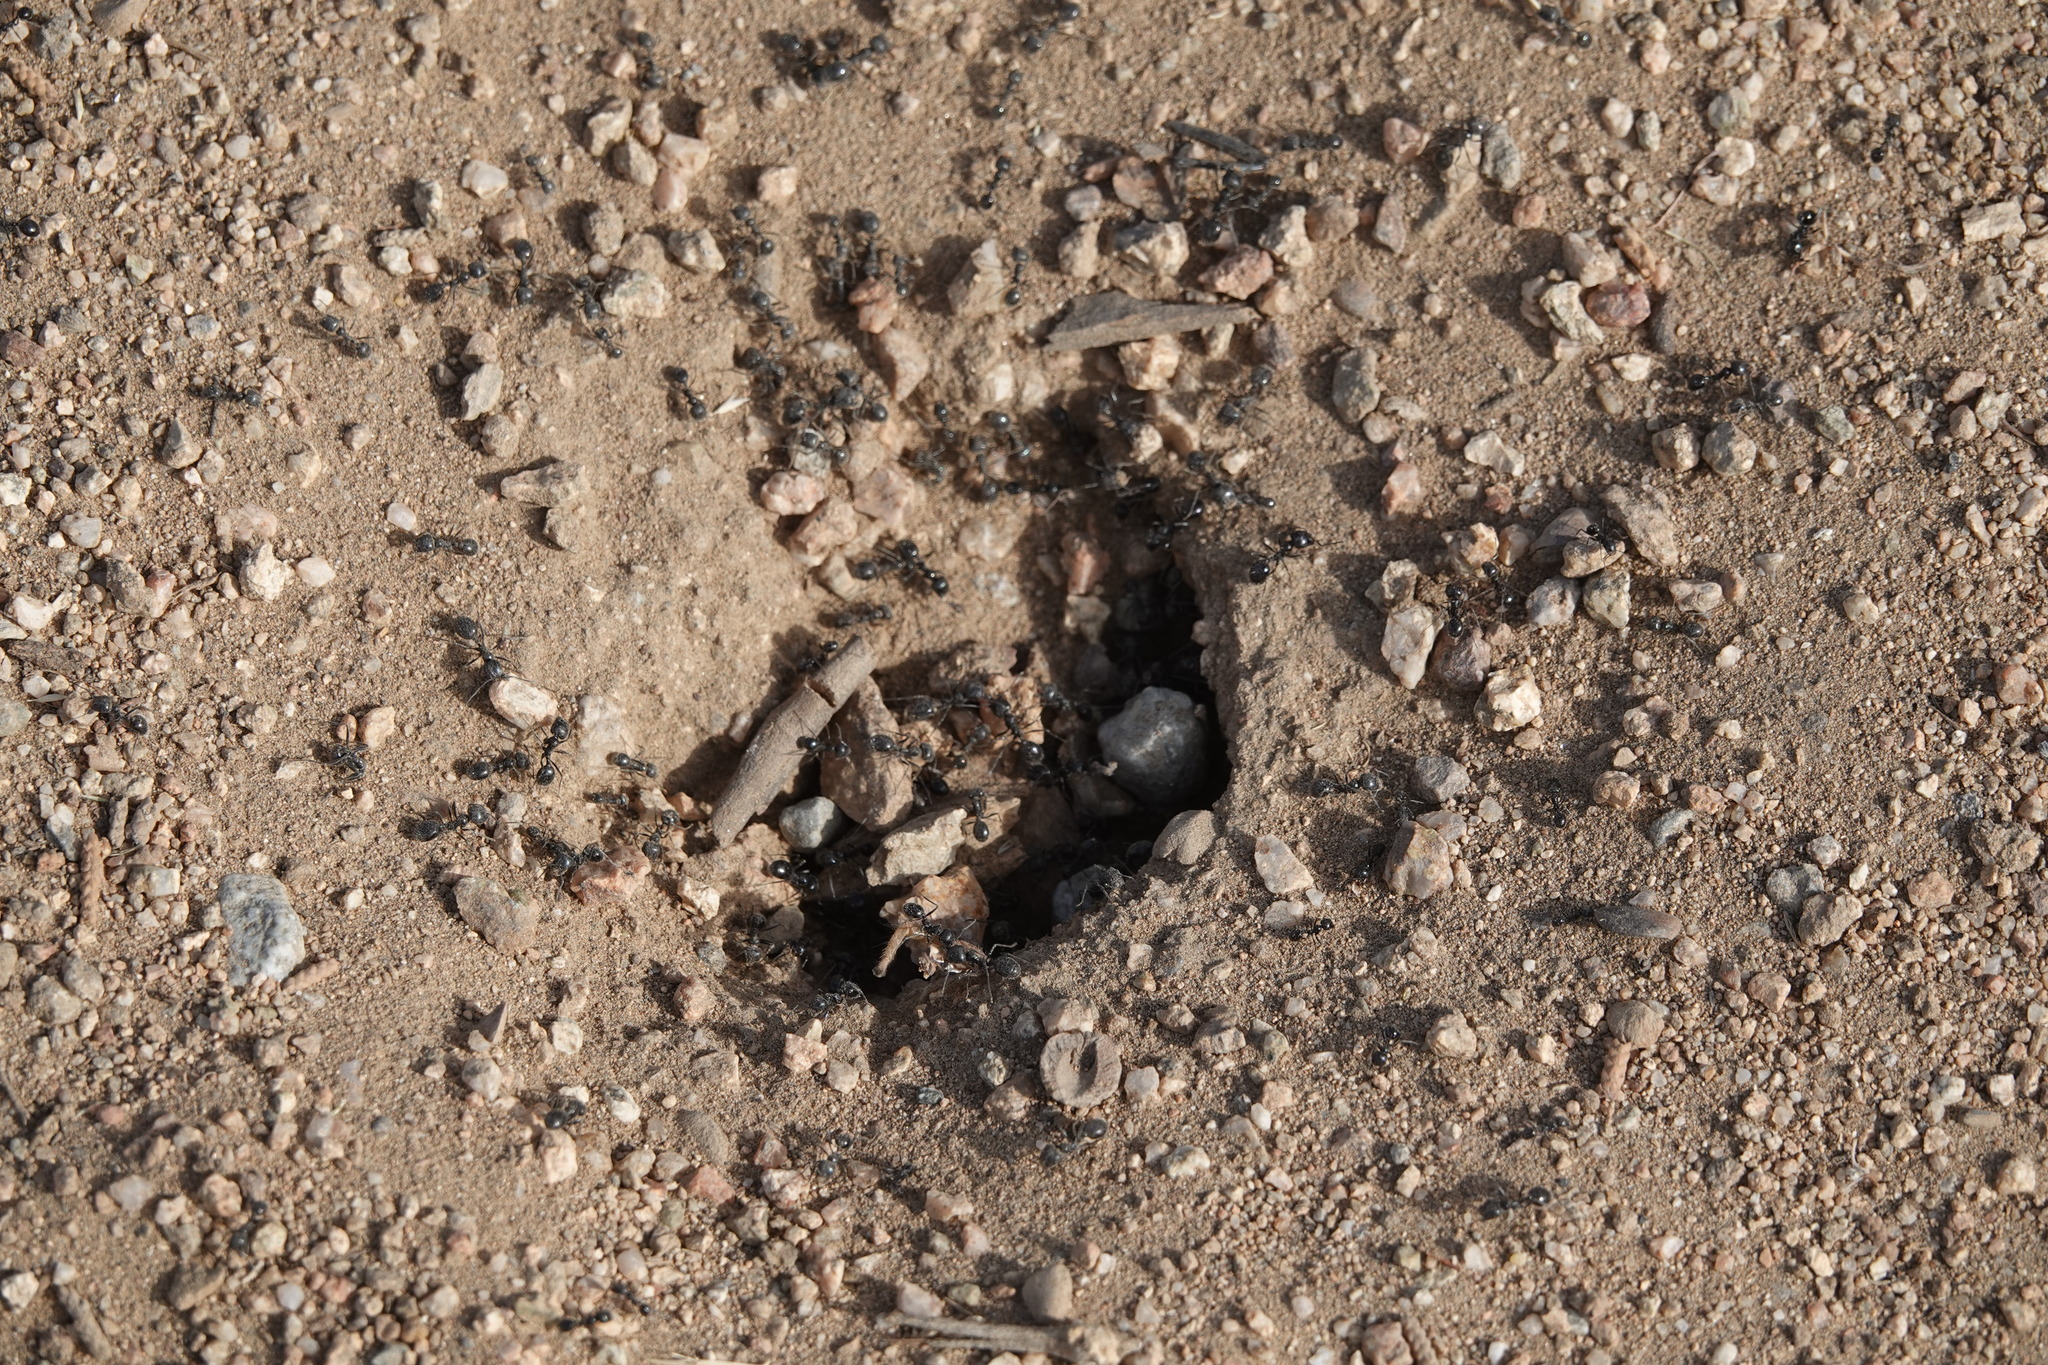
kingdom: Animalia
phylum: Arthropoda
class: Insecta
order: Hymenoptera
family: Formicidae
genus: Messor
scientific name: Messor pergandei
